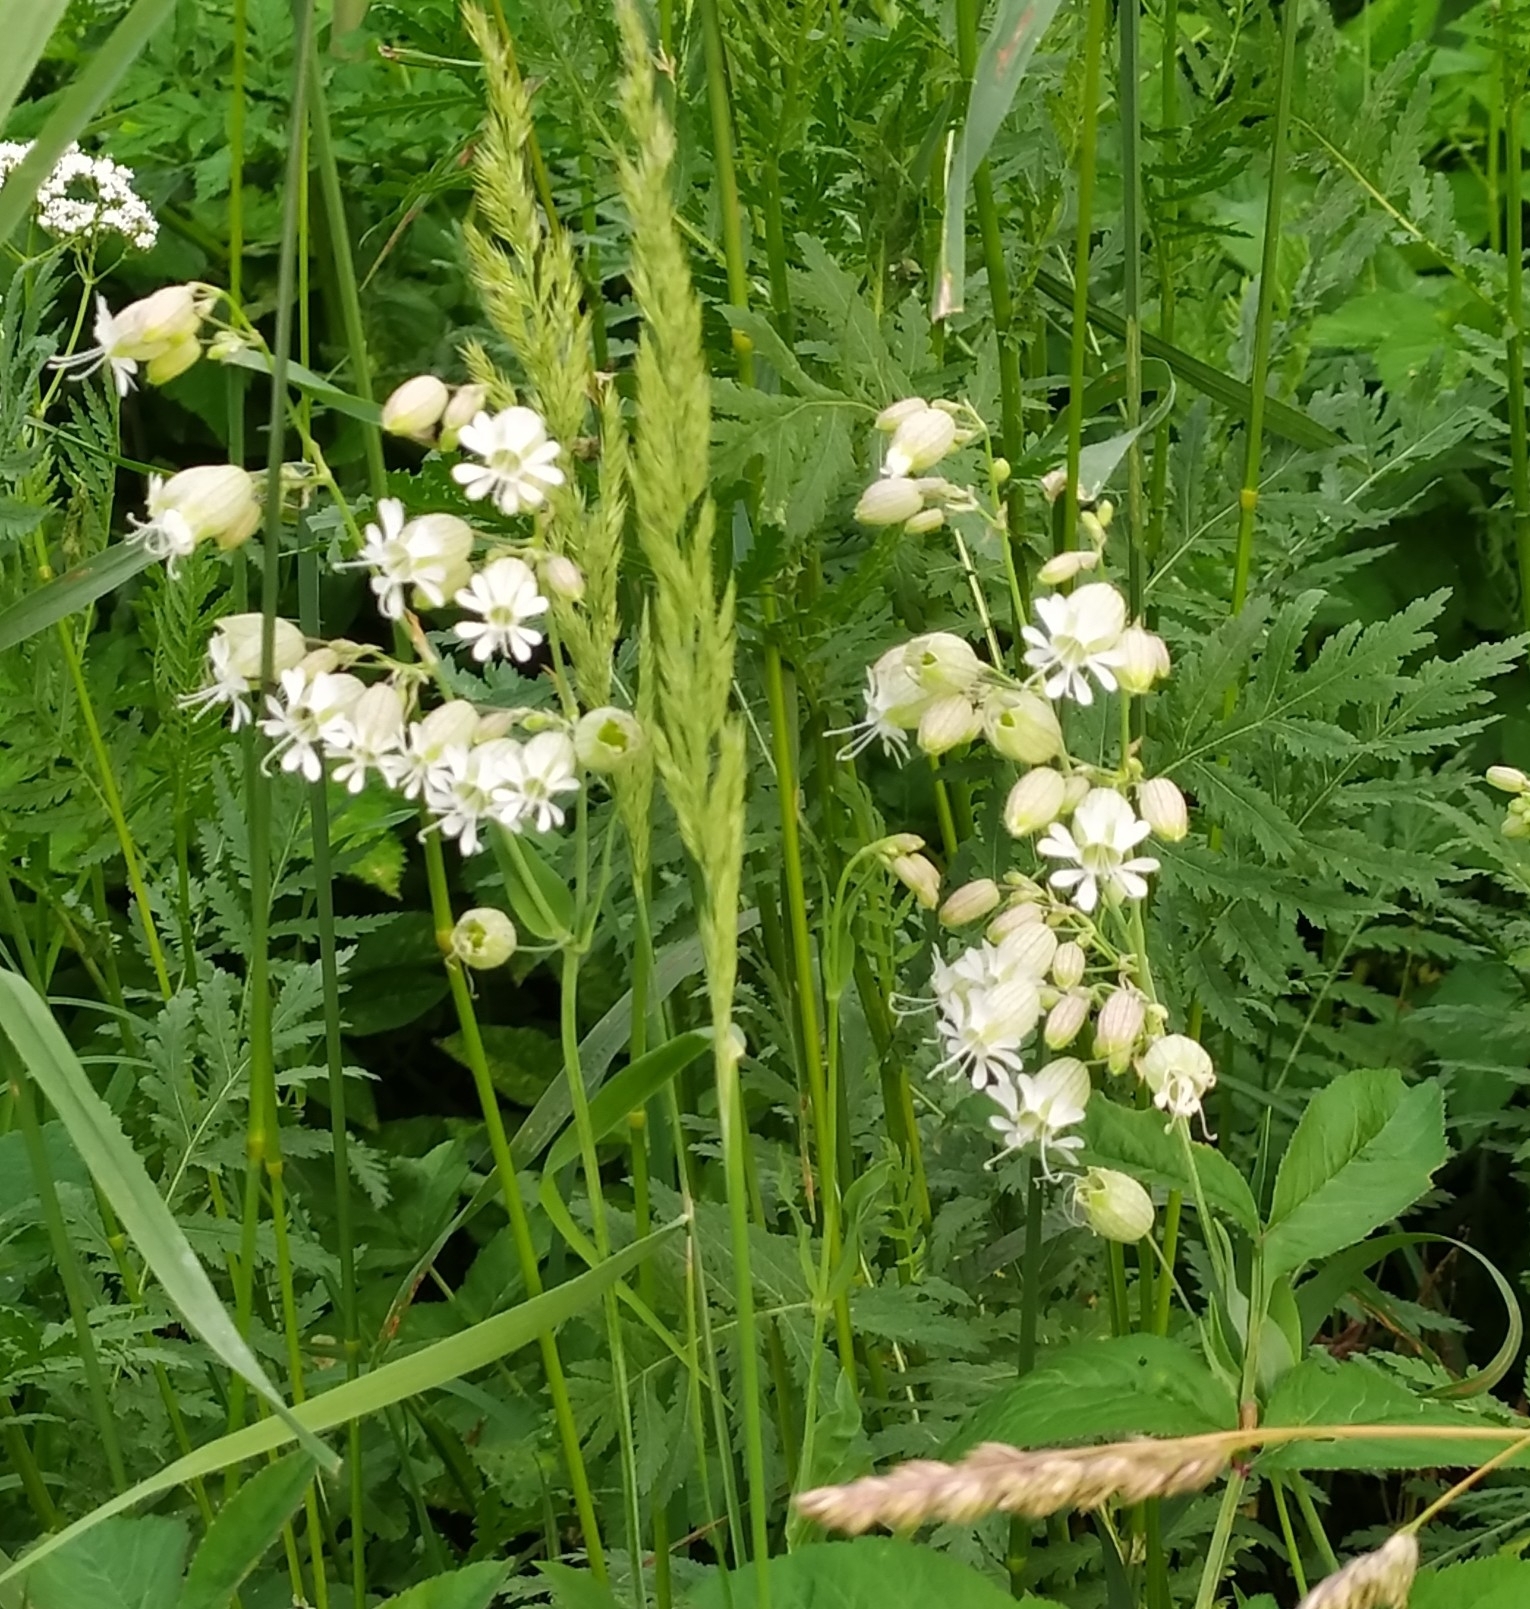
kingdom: Plantae
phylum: Tracheophyta
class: Magnoliopsida
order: Caryophyllales
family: Caryophyllaceae
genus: Silene
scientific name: Silene vulgaris
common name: Bladder campion
